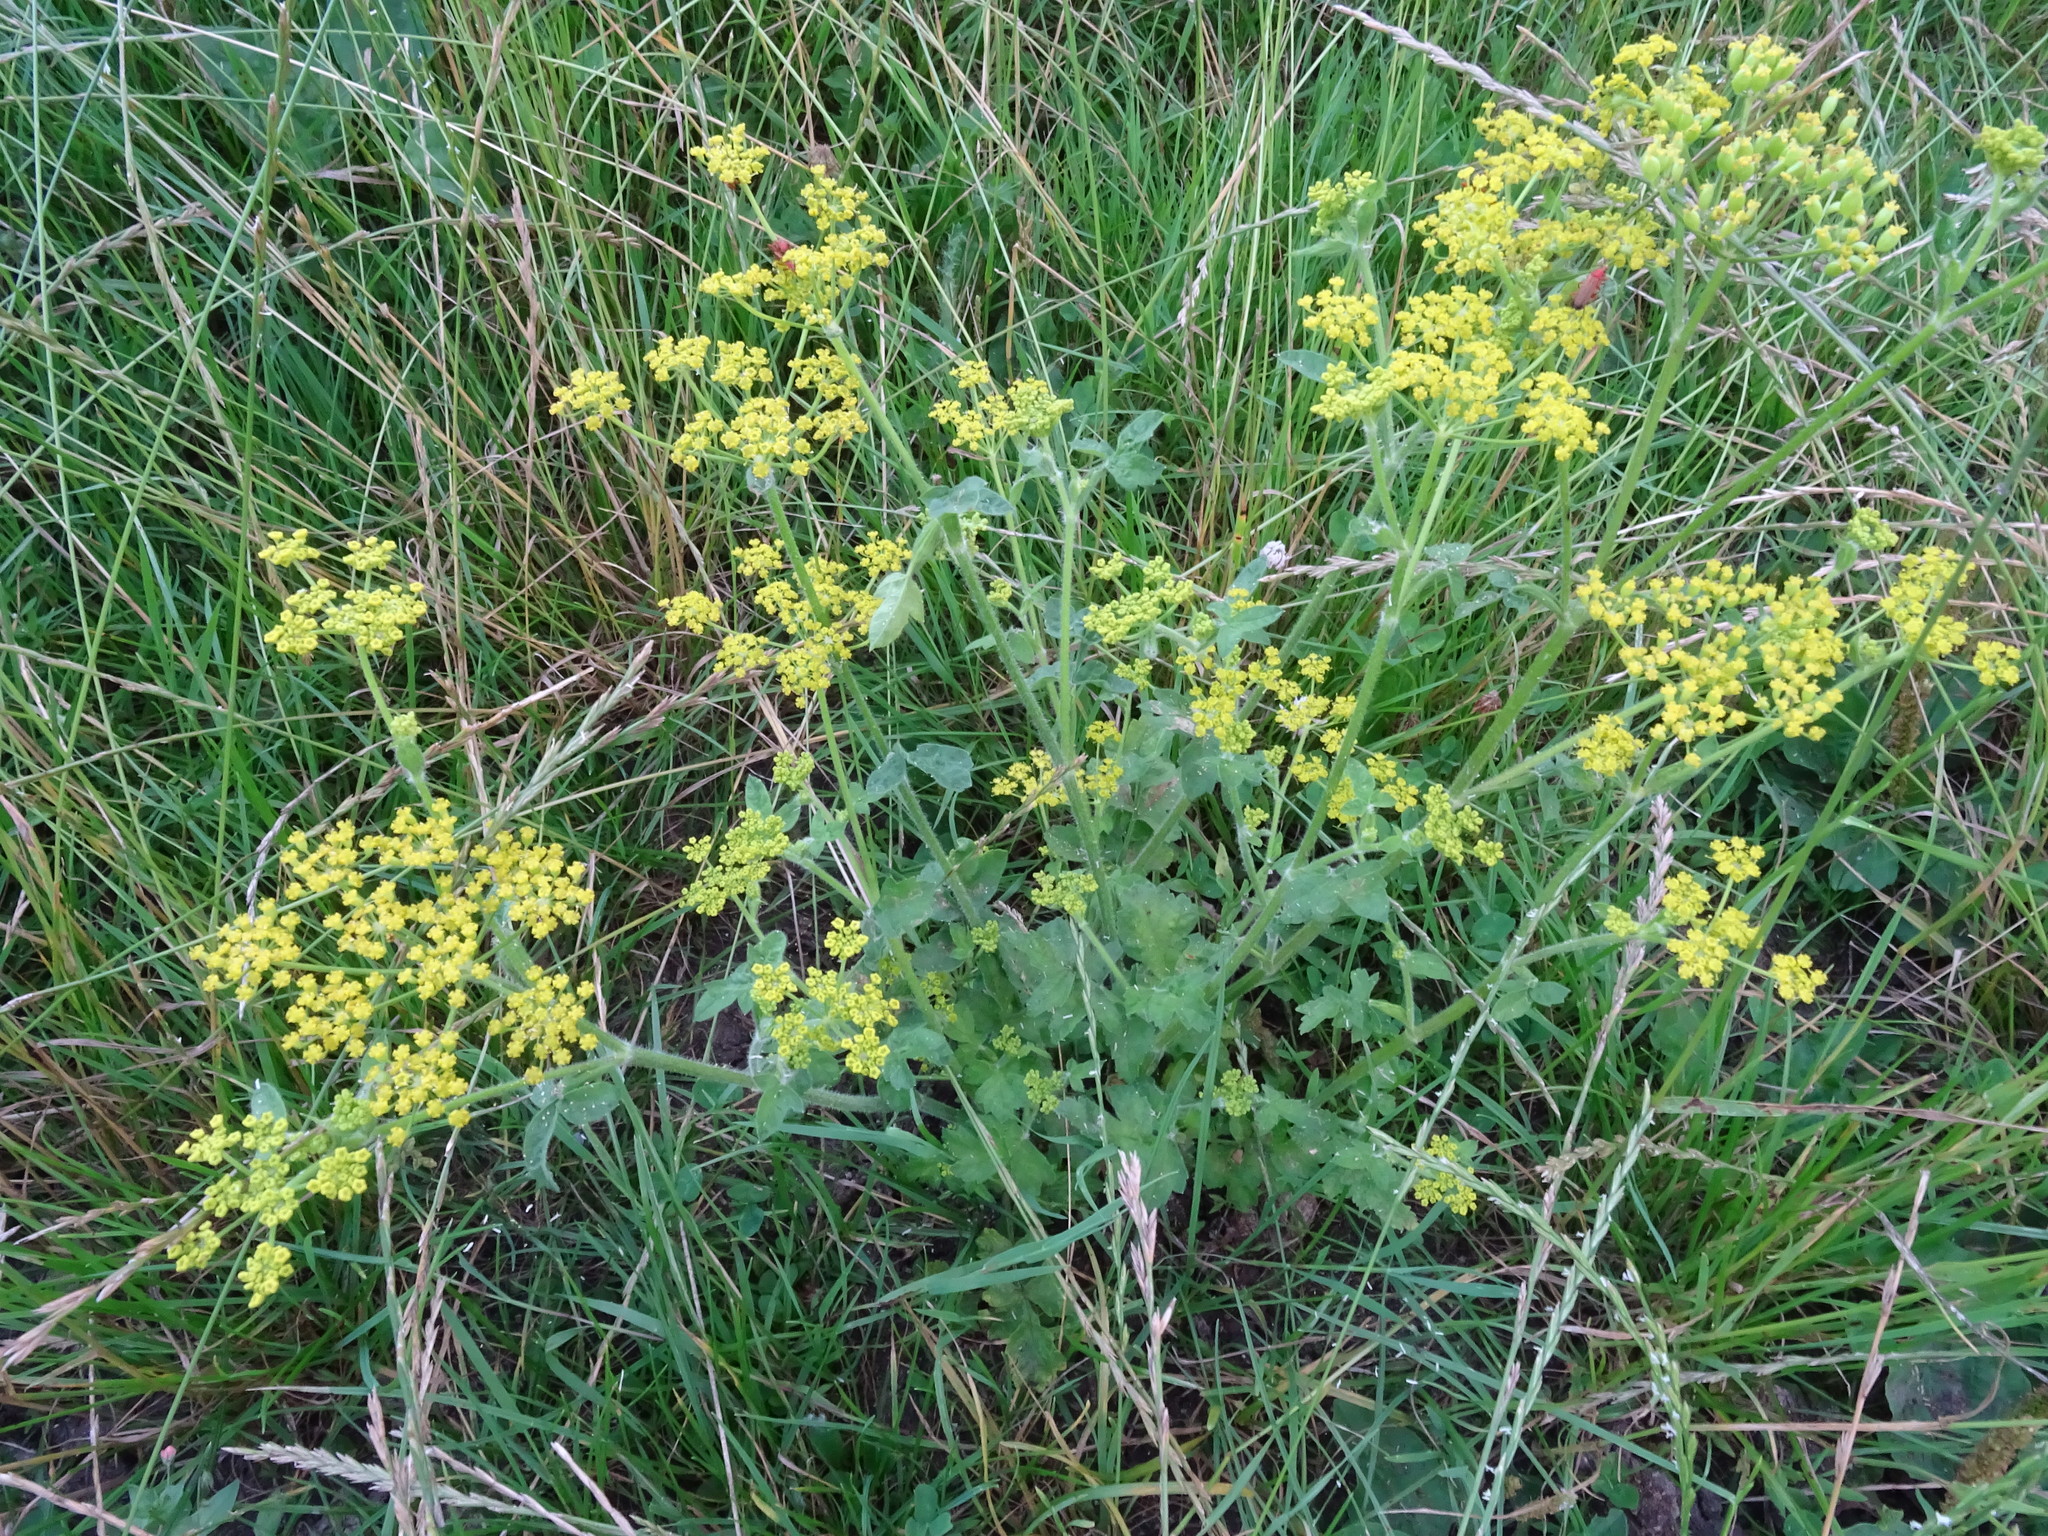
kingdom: Plantae
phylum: Tracheophyta
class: Magnoliopsida
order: Apiales
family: Apiaceae
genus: Pastinaca
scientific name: Pastinaca sativa
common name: Wild parsnip
